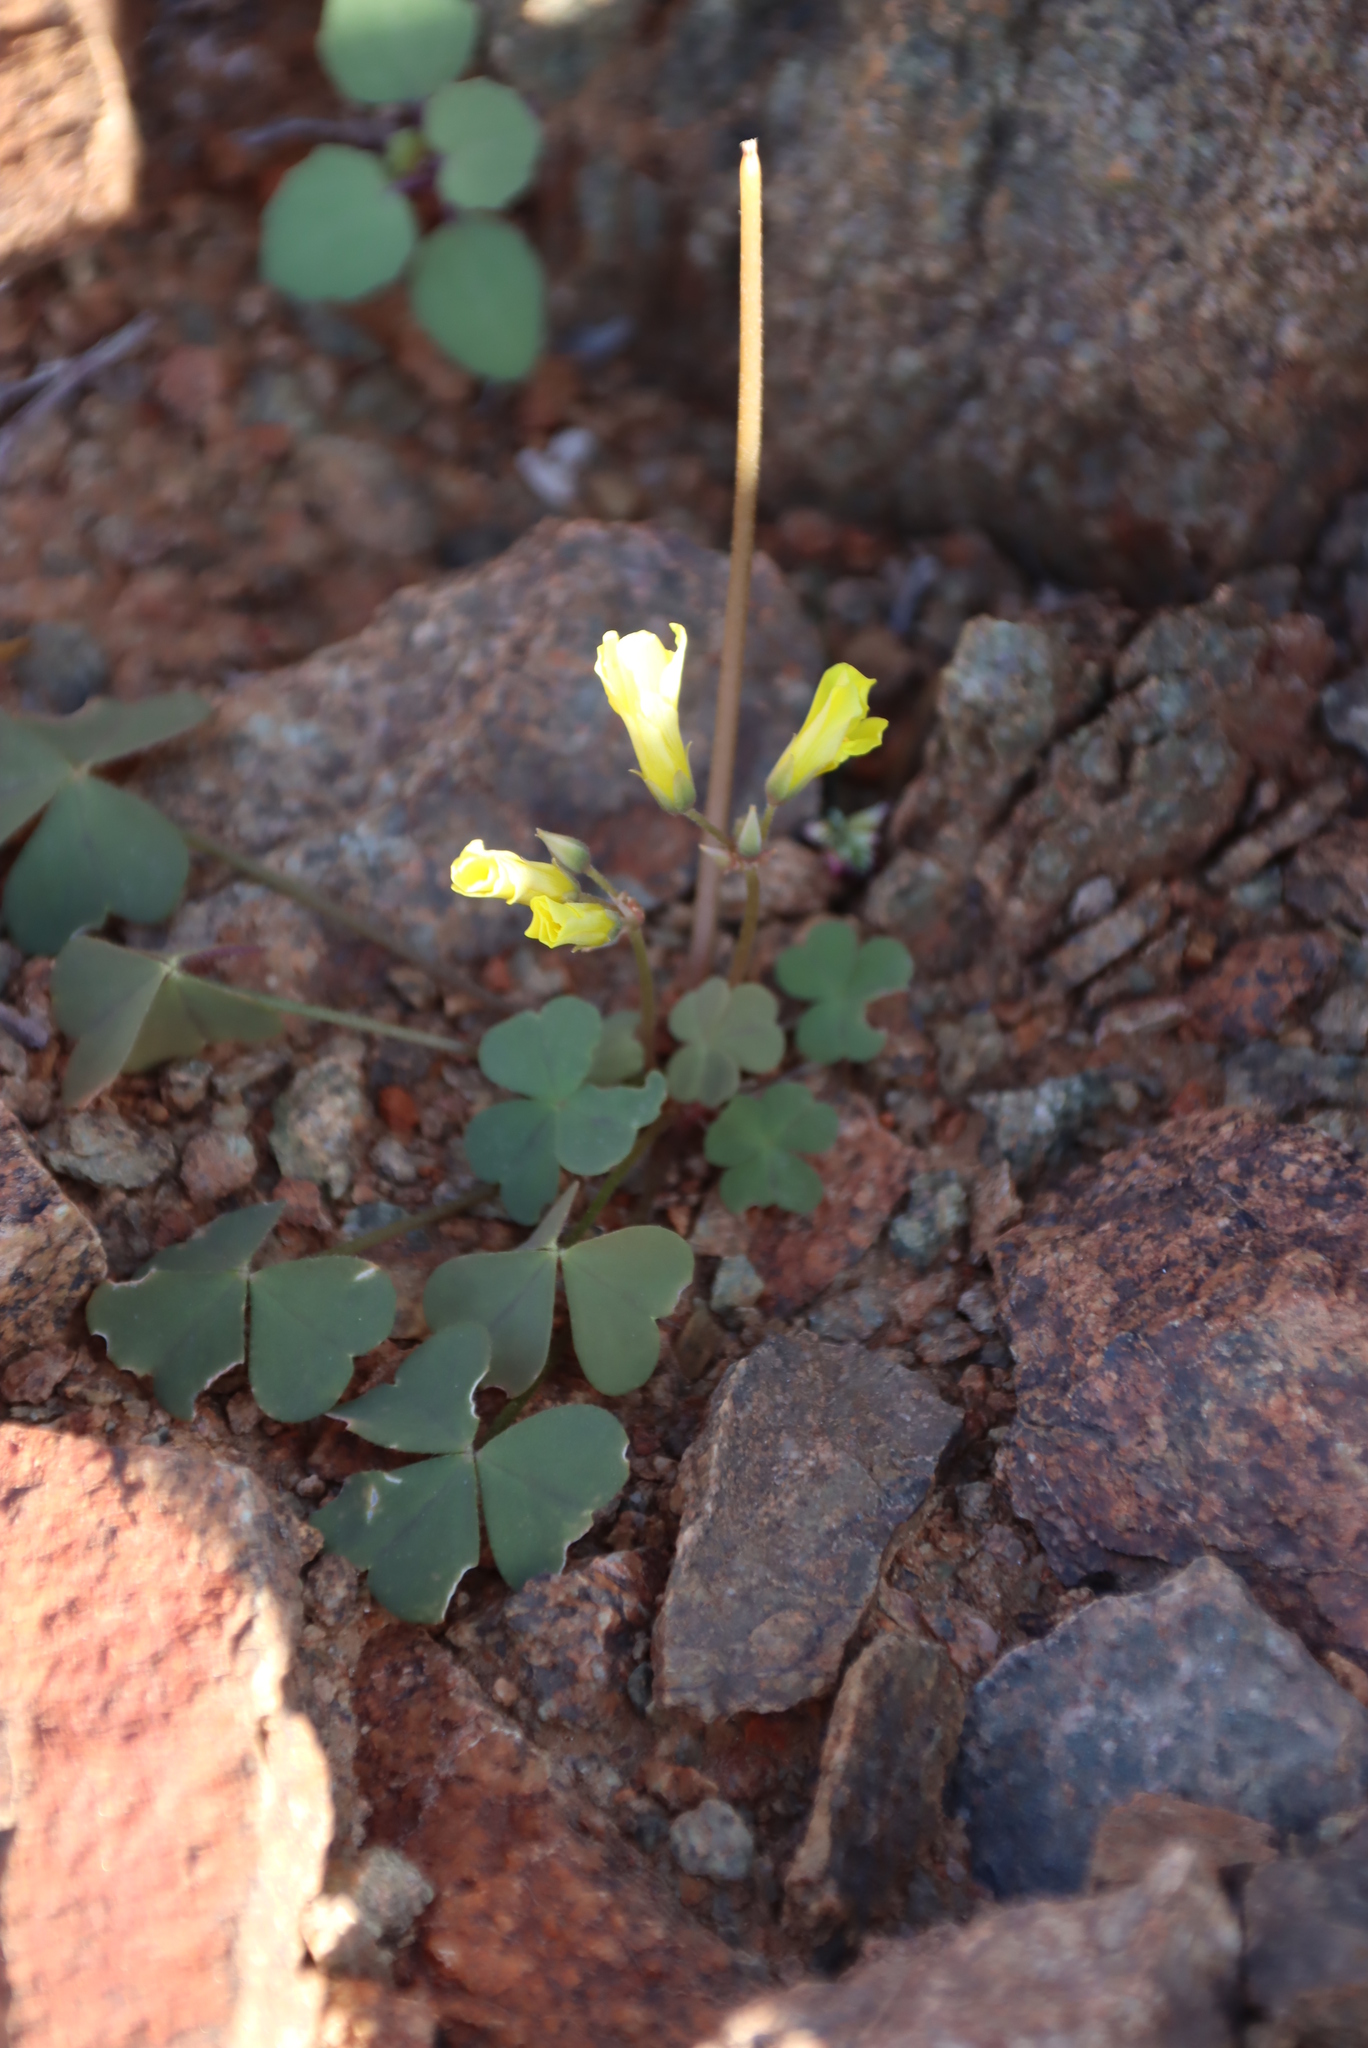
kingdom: Plantae
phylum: Tracheophyta
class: Magnoliopsida
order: Oxalidales
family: Oxalidaceae
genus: Oxalis
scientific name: Oxalis copiosa
